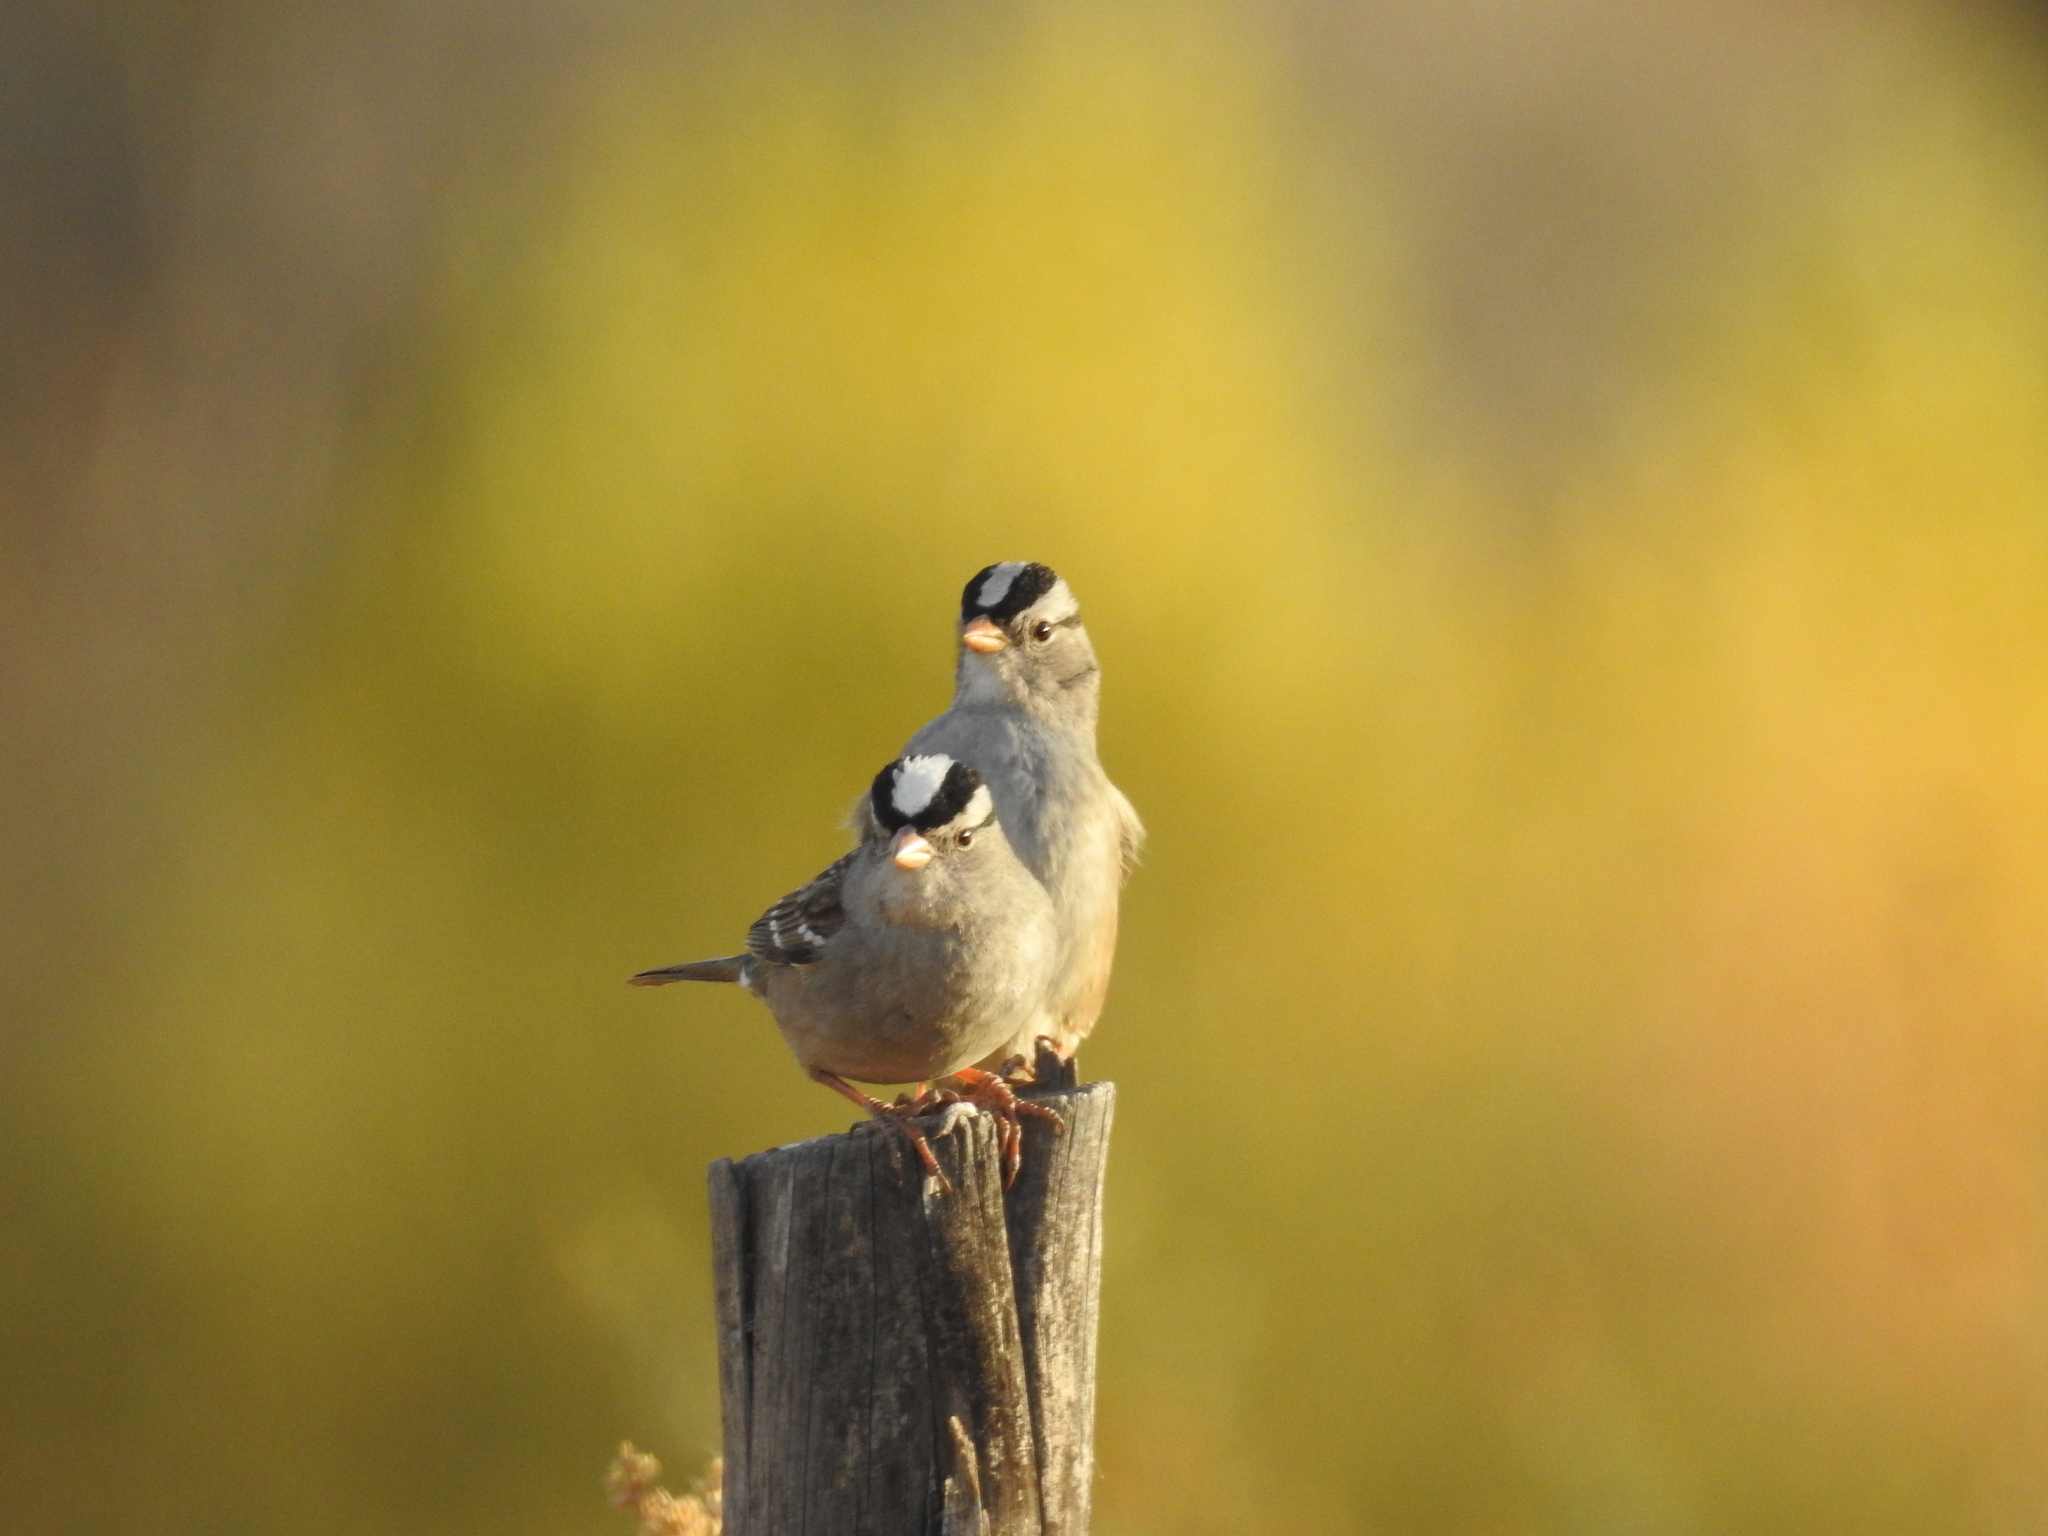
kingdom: Animalia
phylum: Chordata
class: Aves
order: Passeriformes
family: Passerellidae
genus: Zonotrichia
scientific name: Zonotrichia leucophrys
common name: White-crowned sparrow
